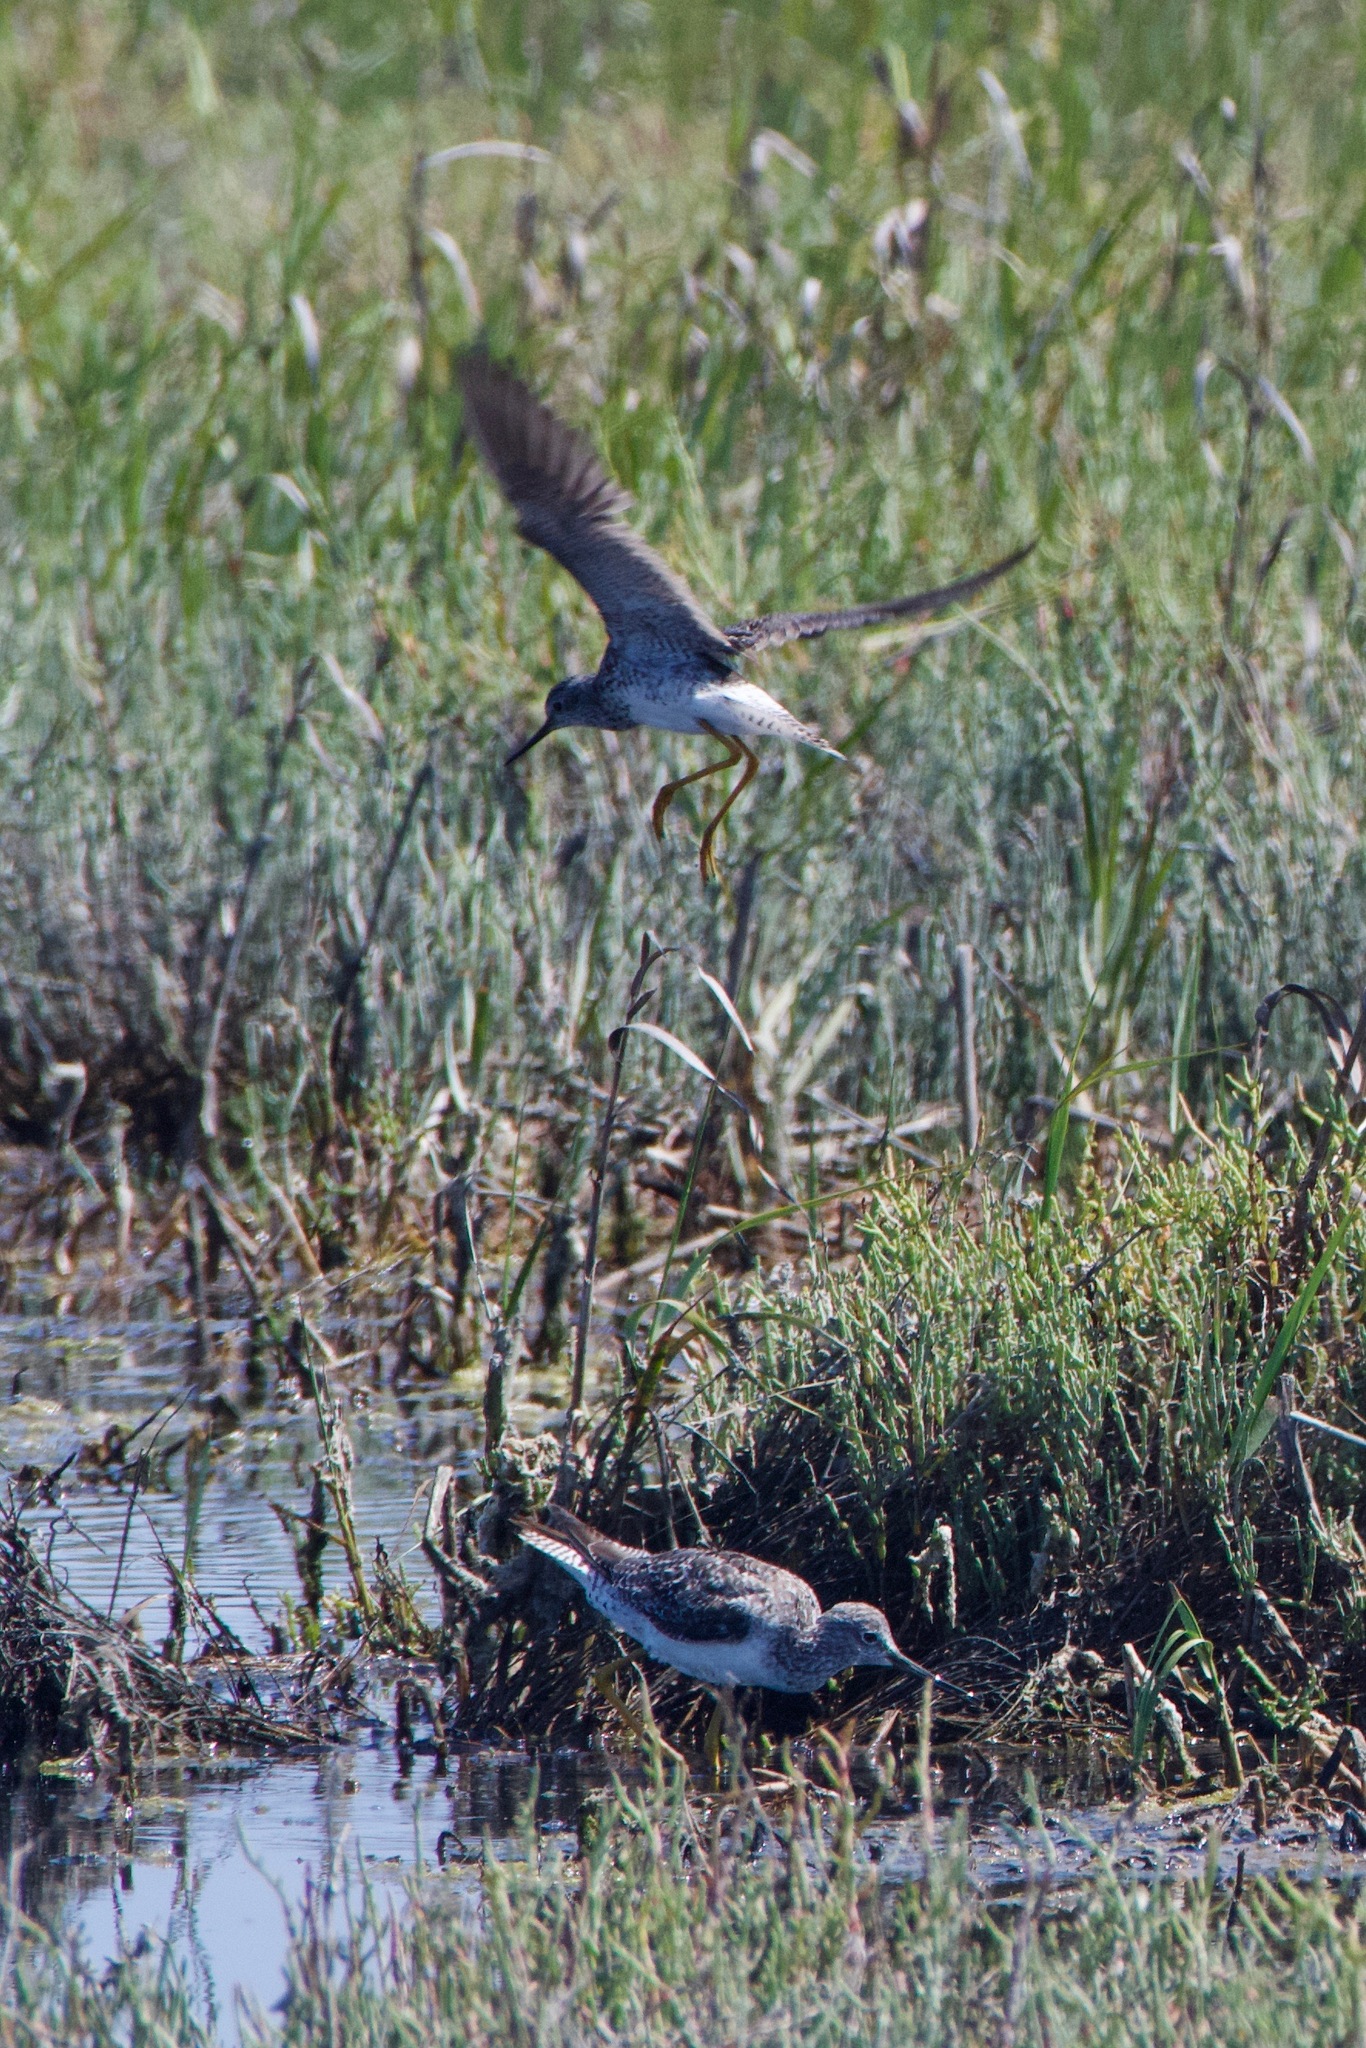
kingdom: Animalia
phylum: Chordata
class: Aves
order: Charadriiformes
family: Scolopacidae
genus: Tringa
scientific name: Tringa melanoleuca
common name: Greater yellowlegs
